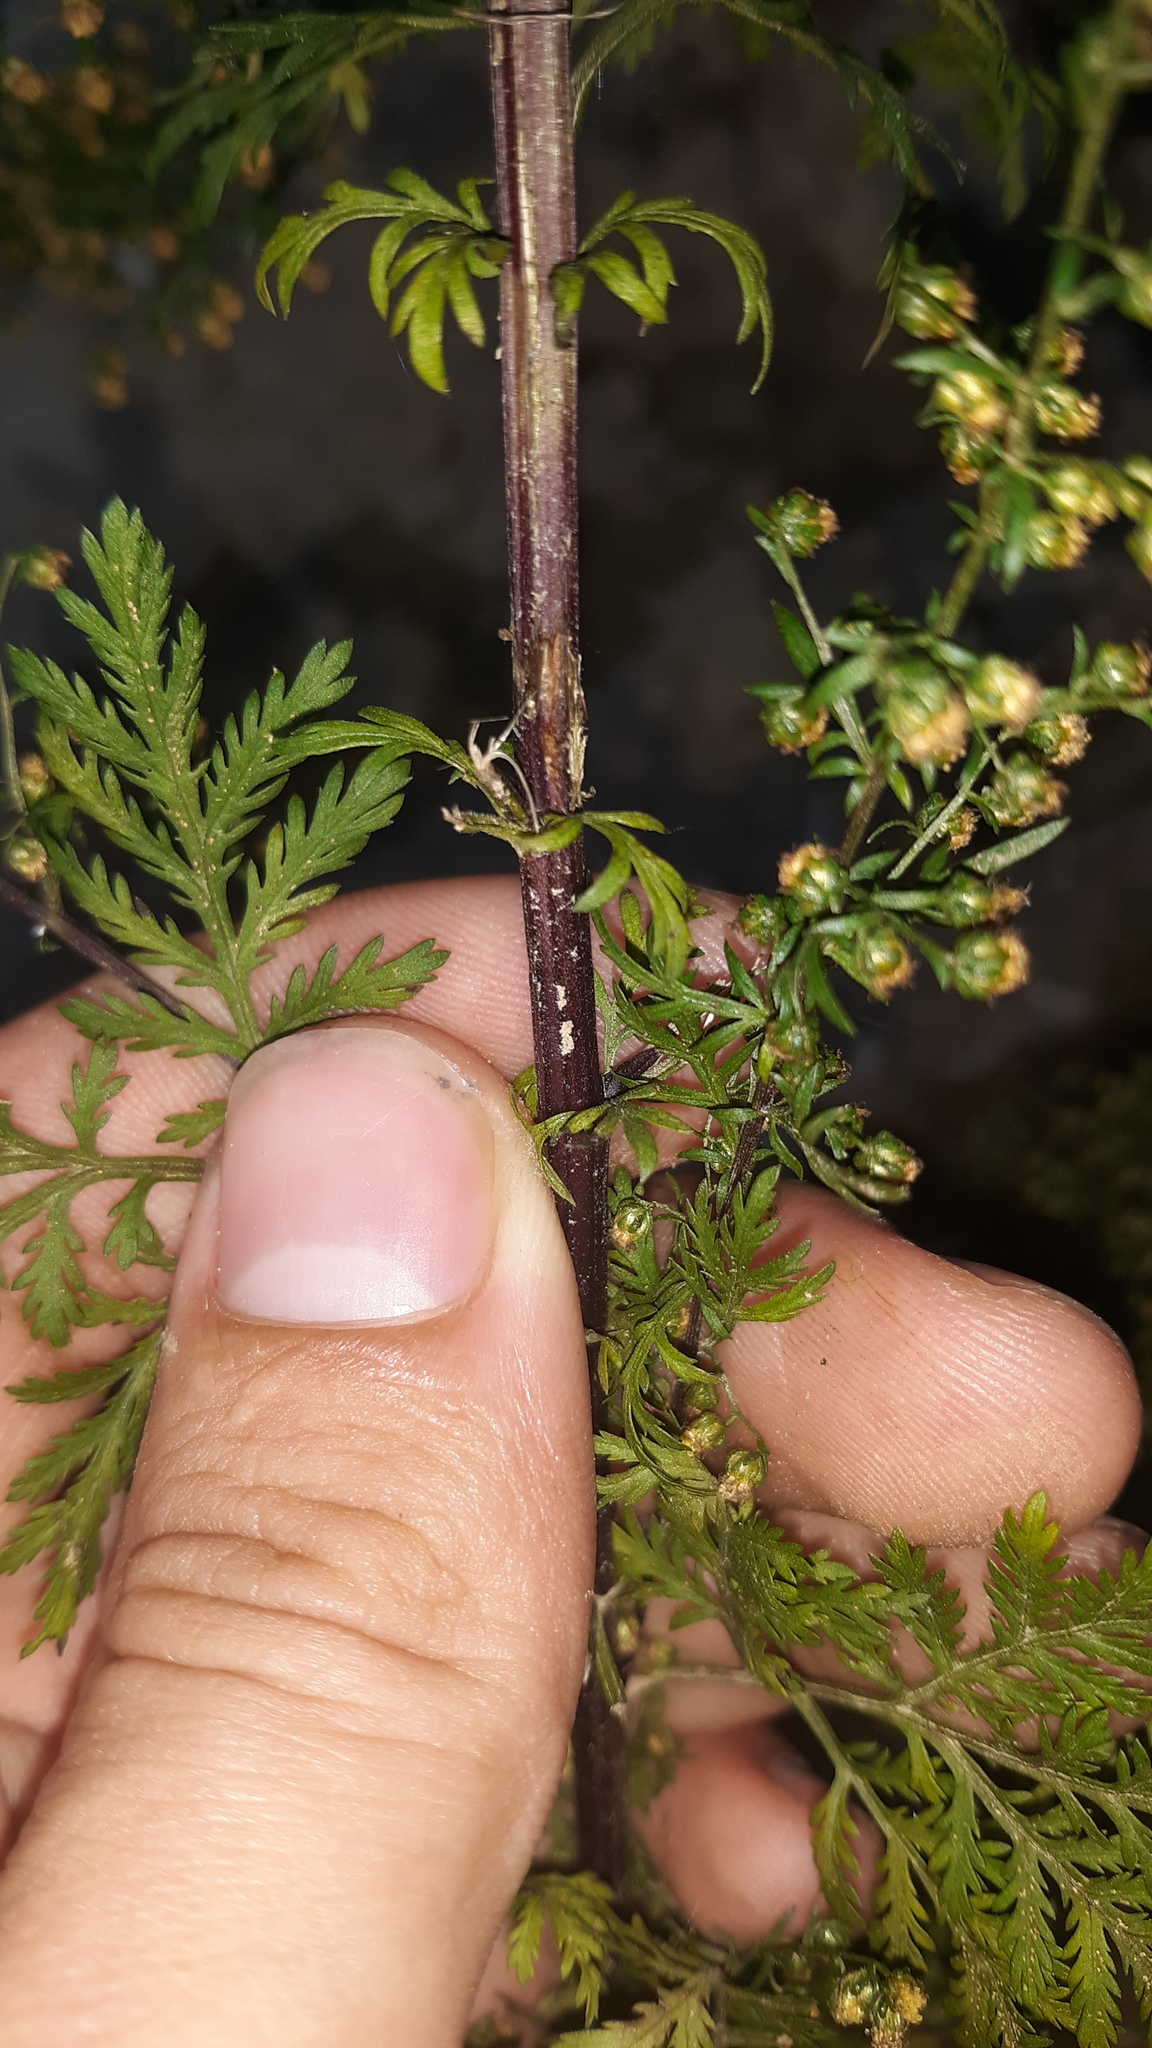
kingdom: Plantae
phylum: Tracheophyta
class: Magnoliopsida
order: Asterales
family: Asteraceae
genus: Artemisia
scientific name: Artemisia annua
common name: Sweet sagewort
